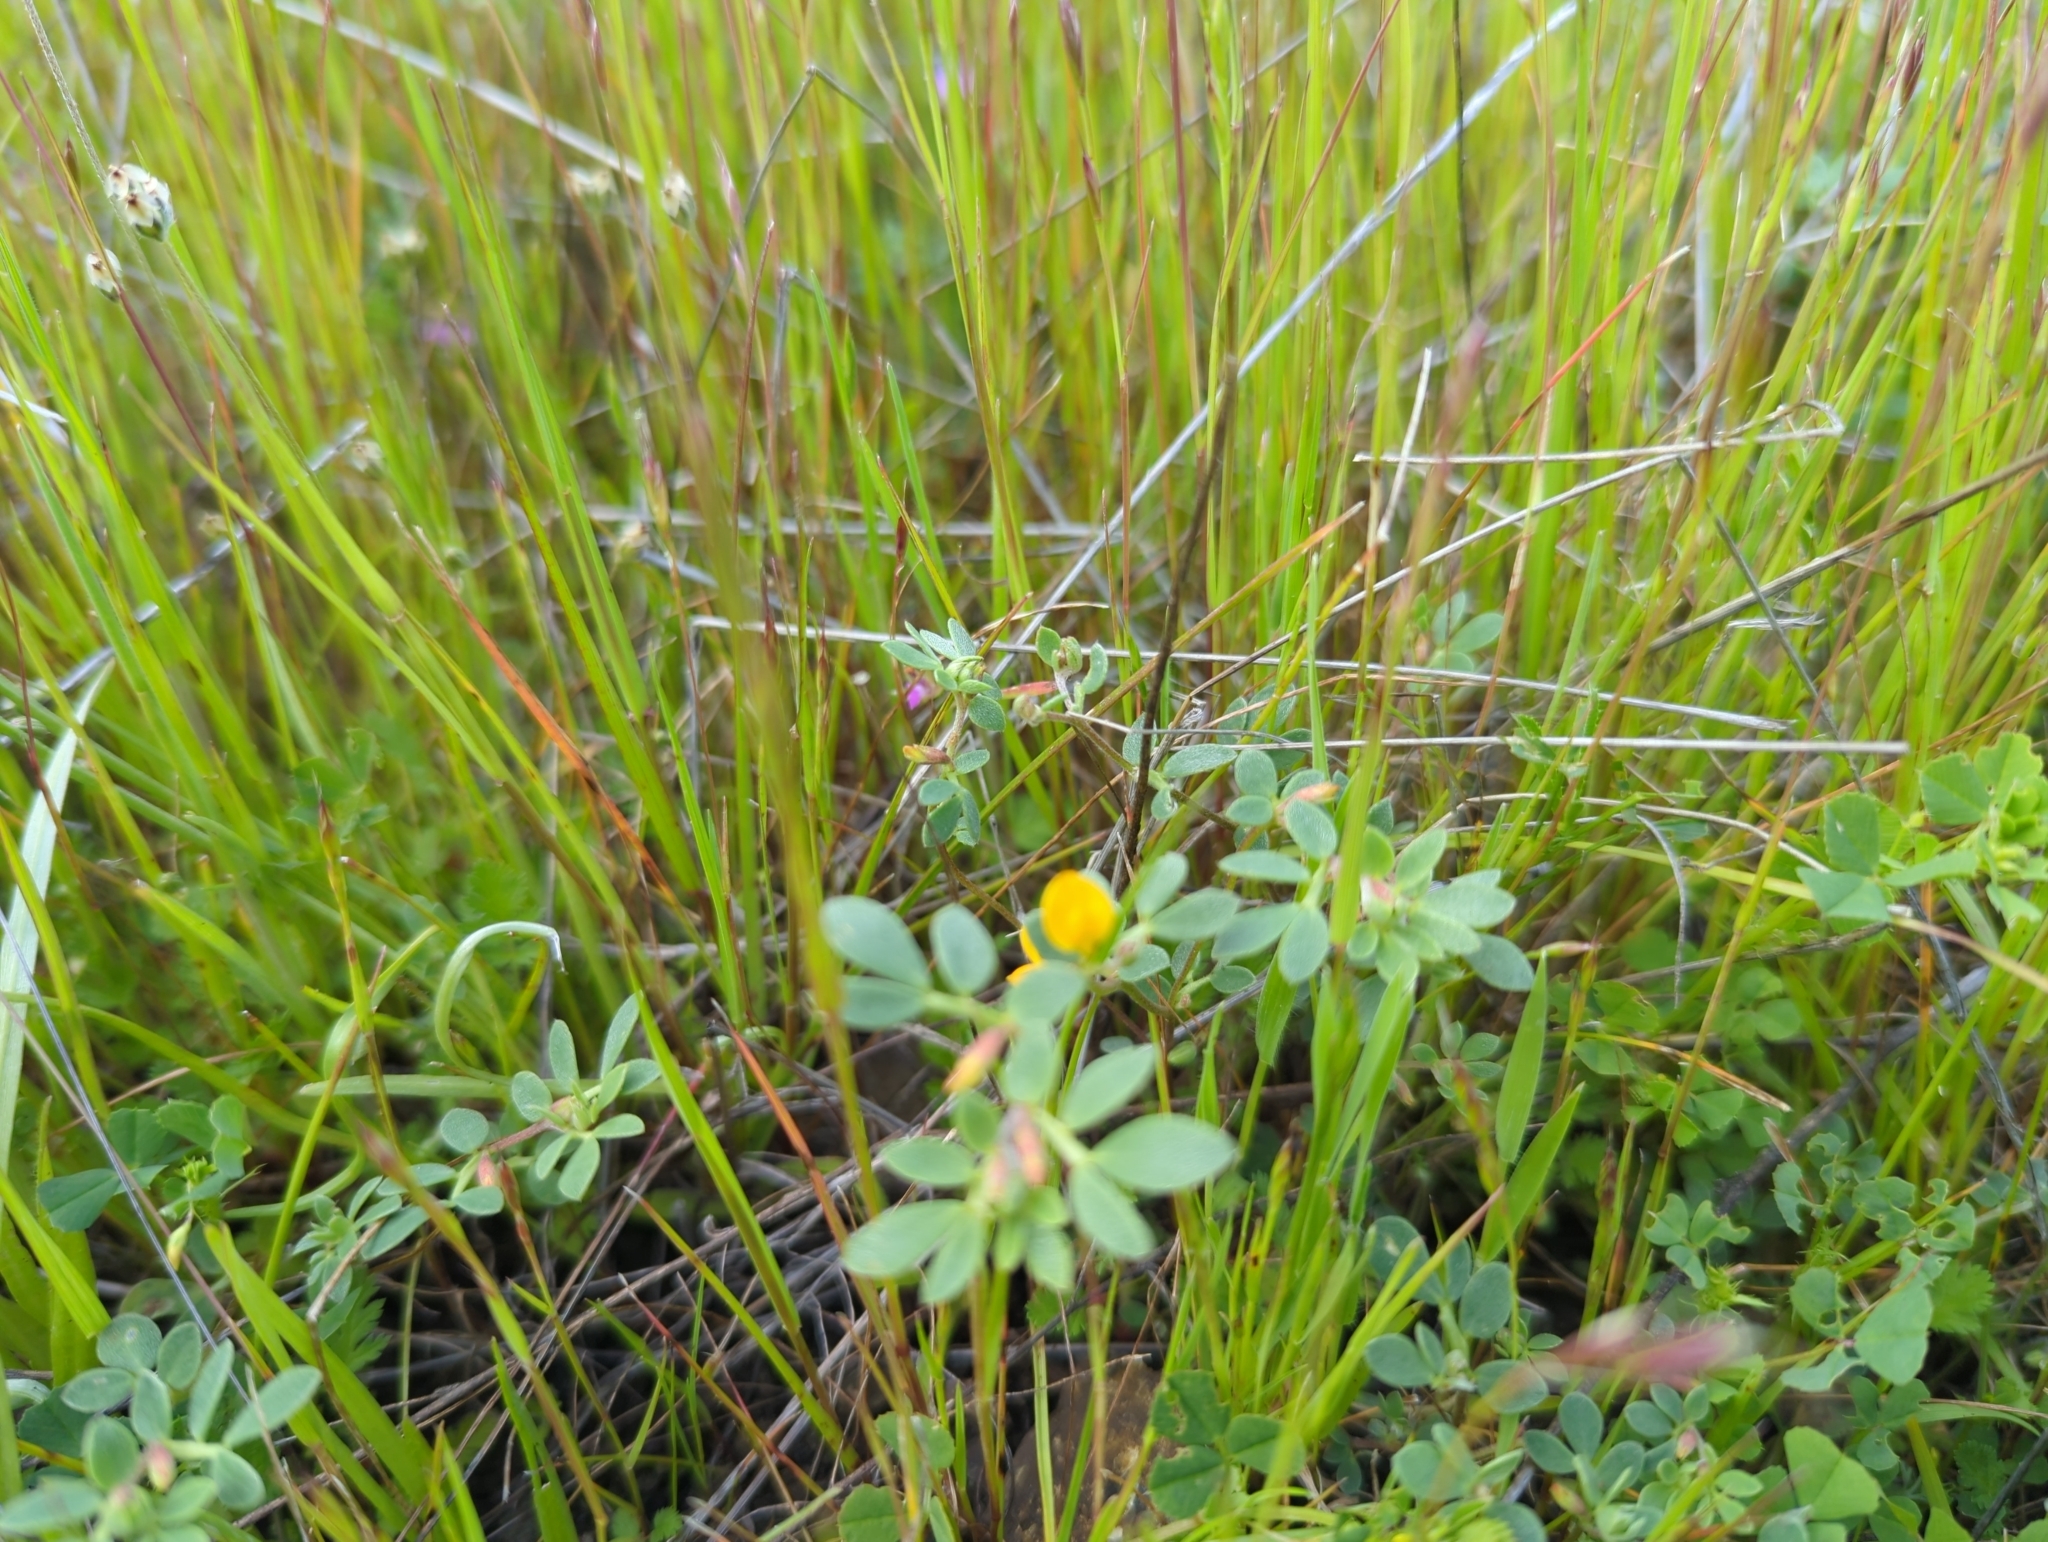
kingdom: Plantae
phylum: Tracheophyta
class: Magnoliopsida
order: Fabales
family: Fabaceae
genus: Acmispon
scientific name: Acmispon wrangelianus
